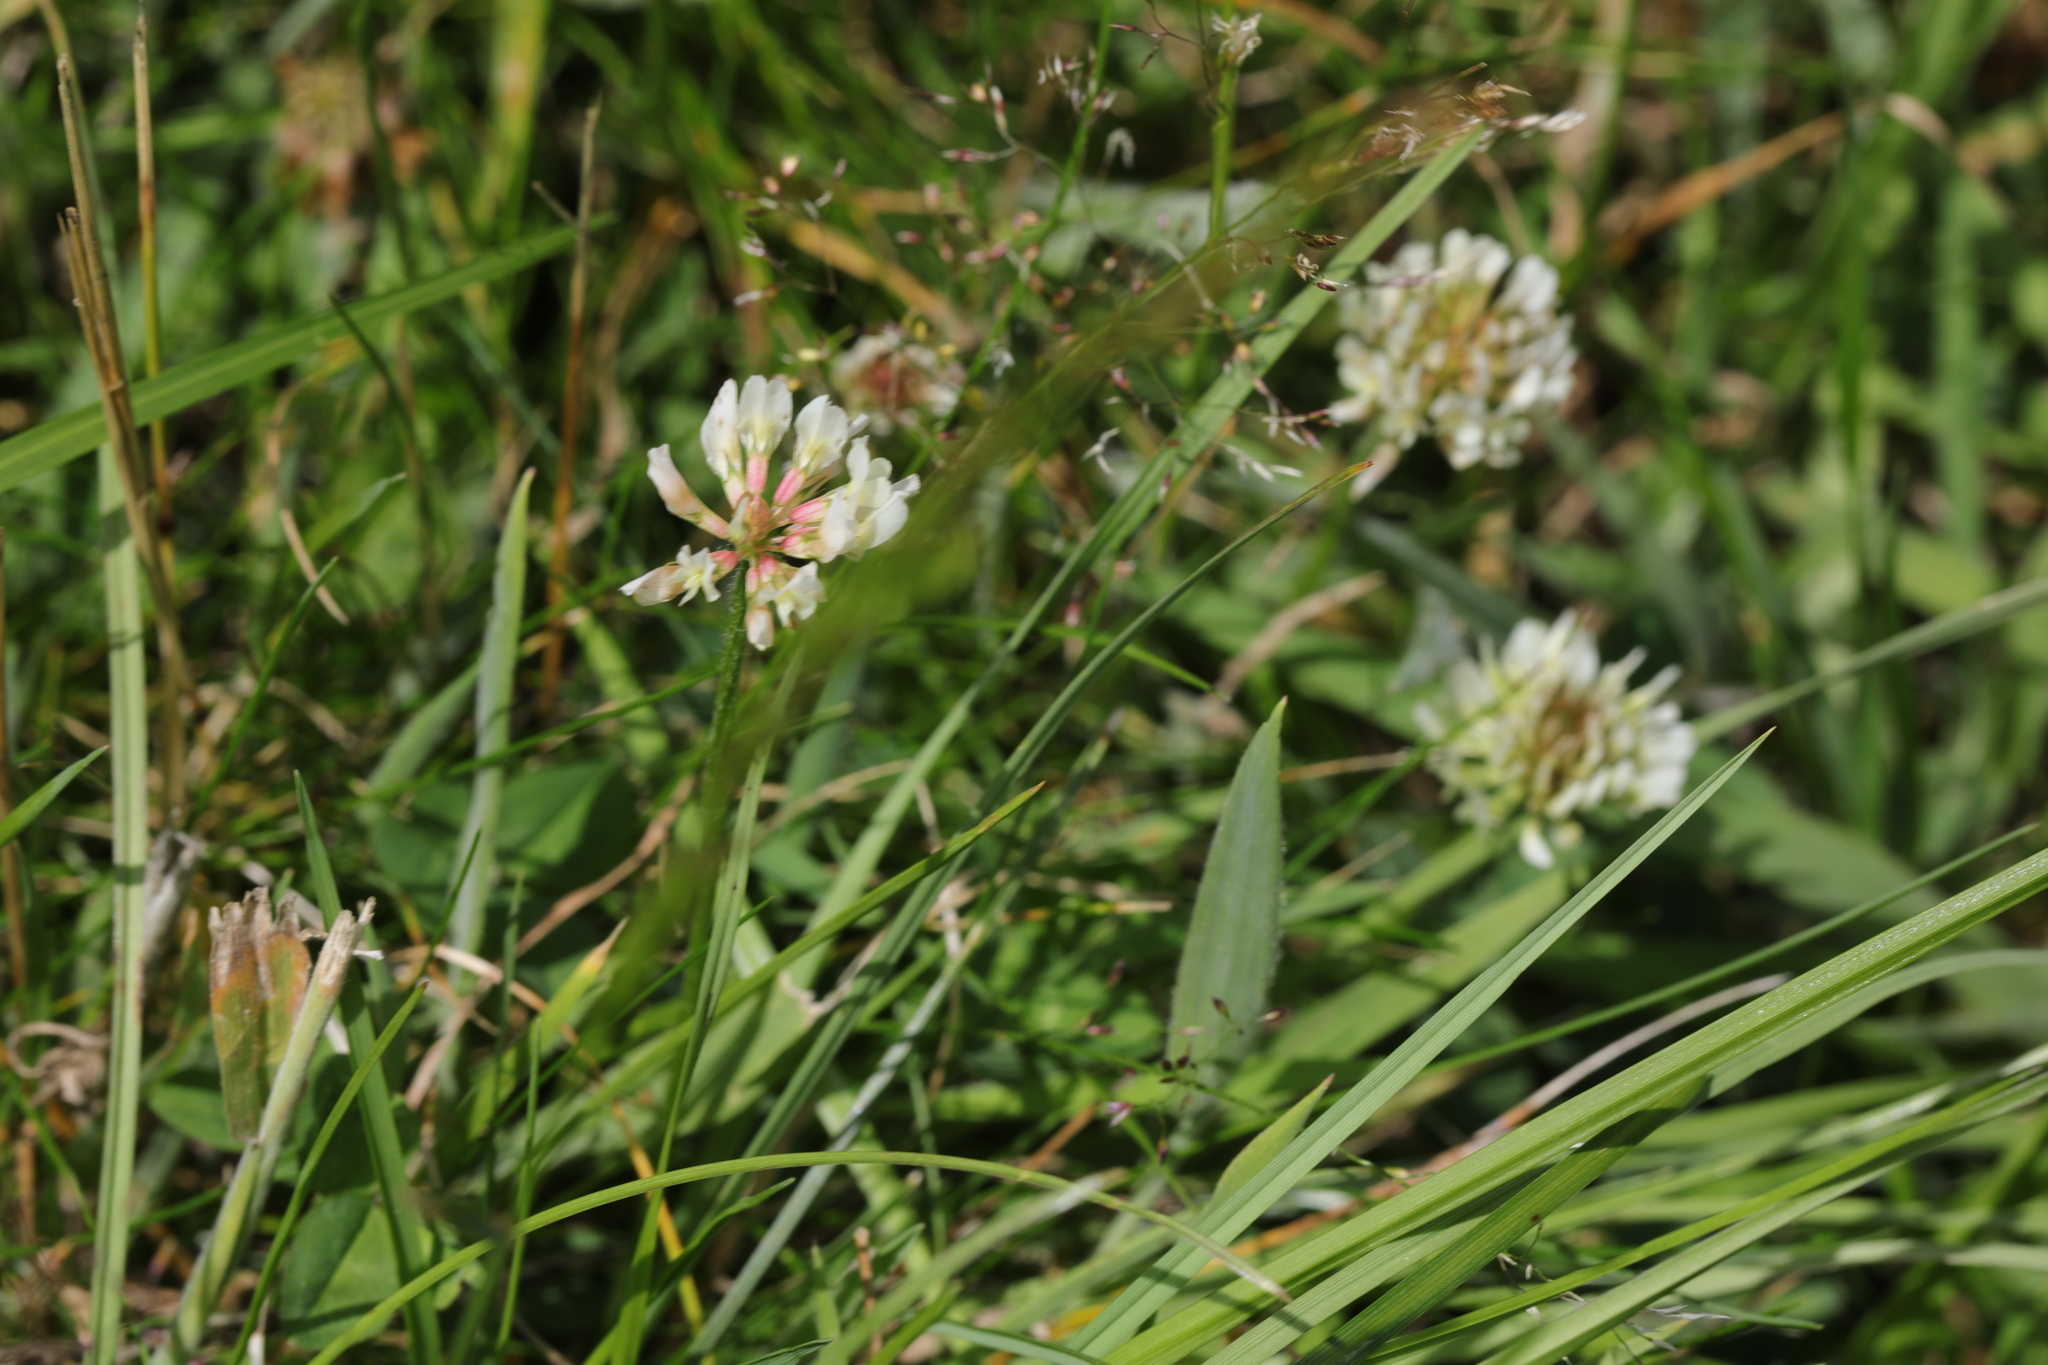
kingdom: Plantae
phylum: Tracheophyta
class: Magnoliopsida
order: Fabales
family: Fabaceae
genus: Trifolium
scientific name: Trifolium repens
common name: White clover
